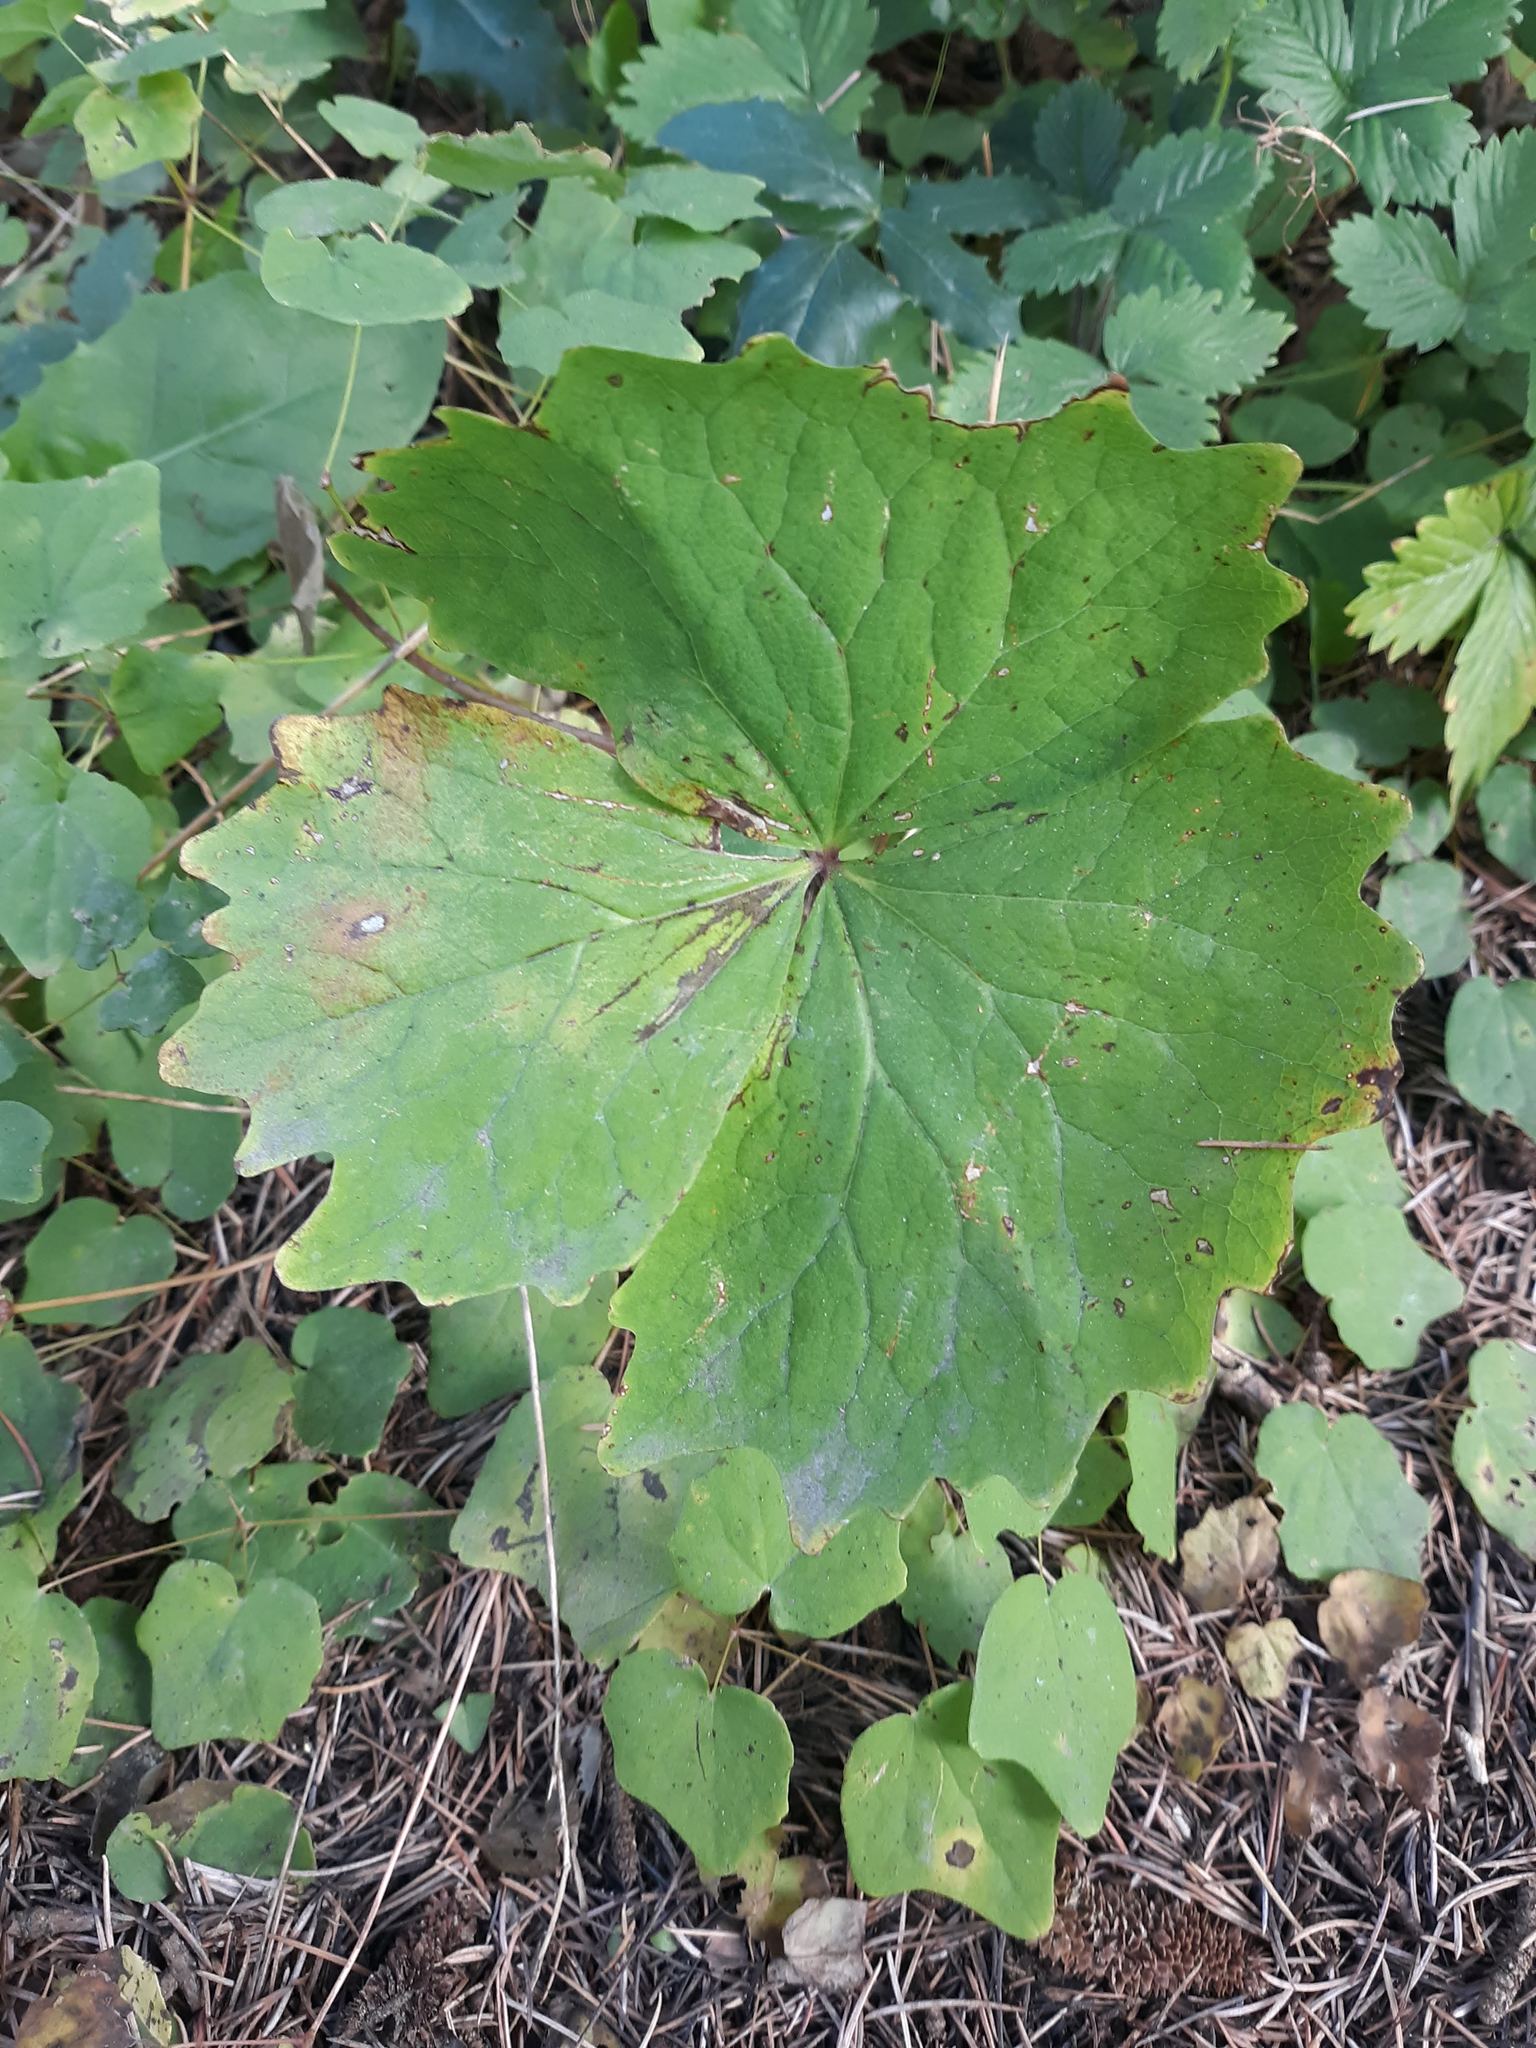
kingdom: Plantae
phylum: Tracheophyta
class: Magnoliopsida
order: Ranunculales
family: Berberidaceae
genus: Achlys
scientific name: Achlys triphylla
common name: Vanilla-leaf
